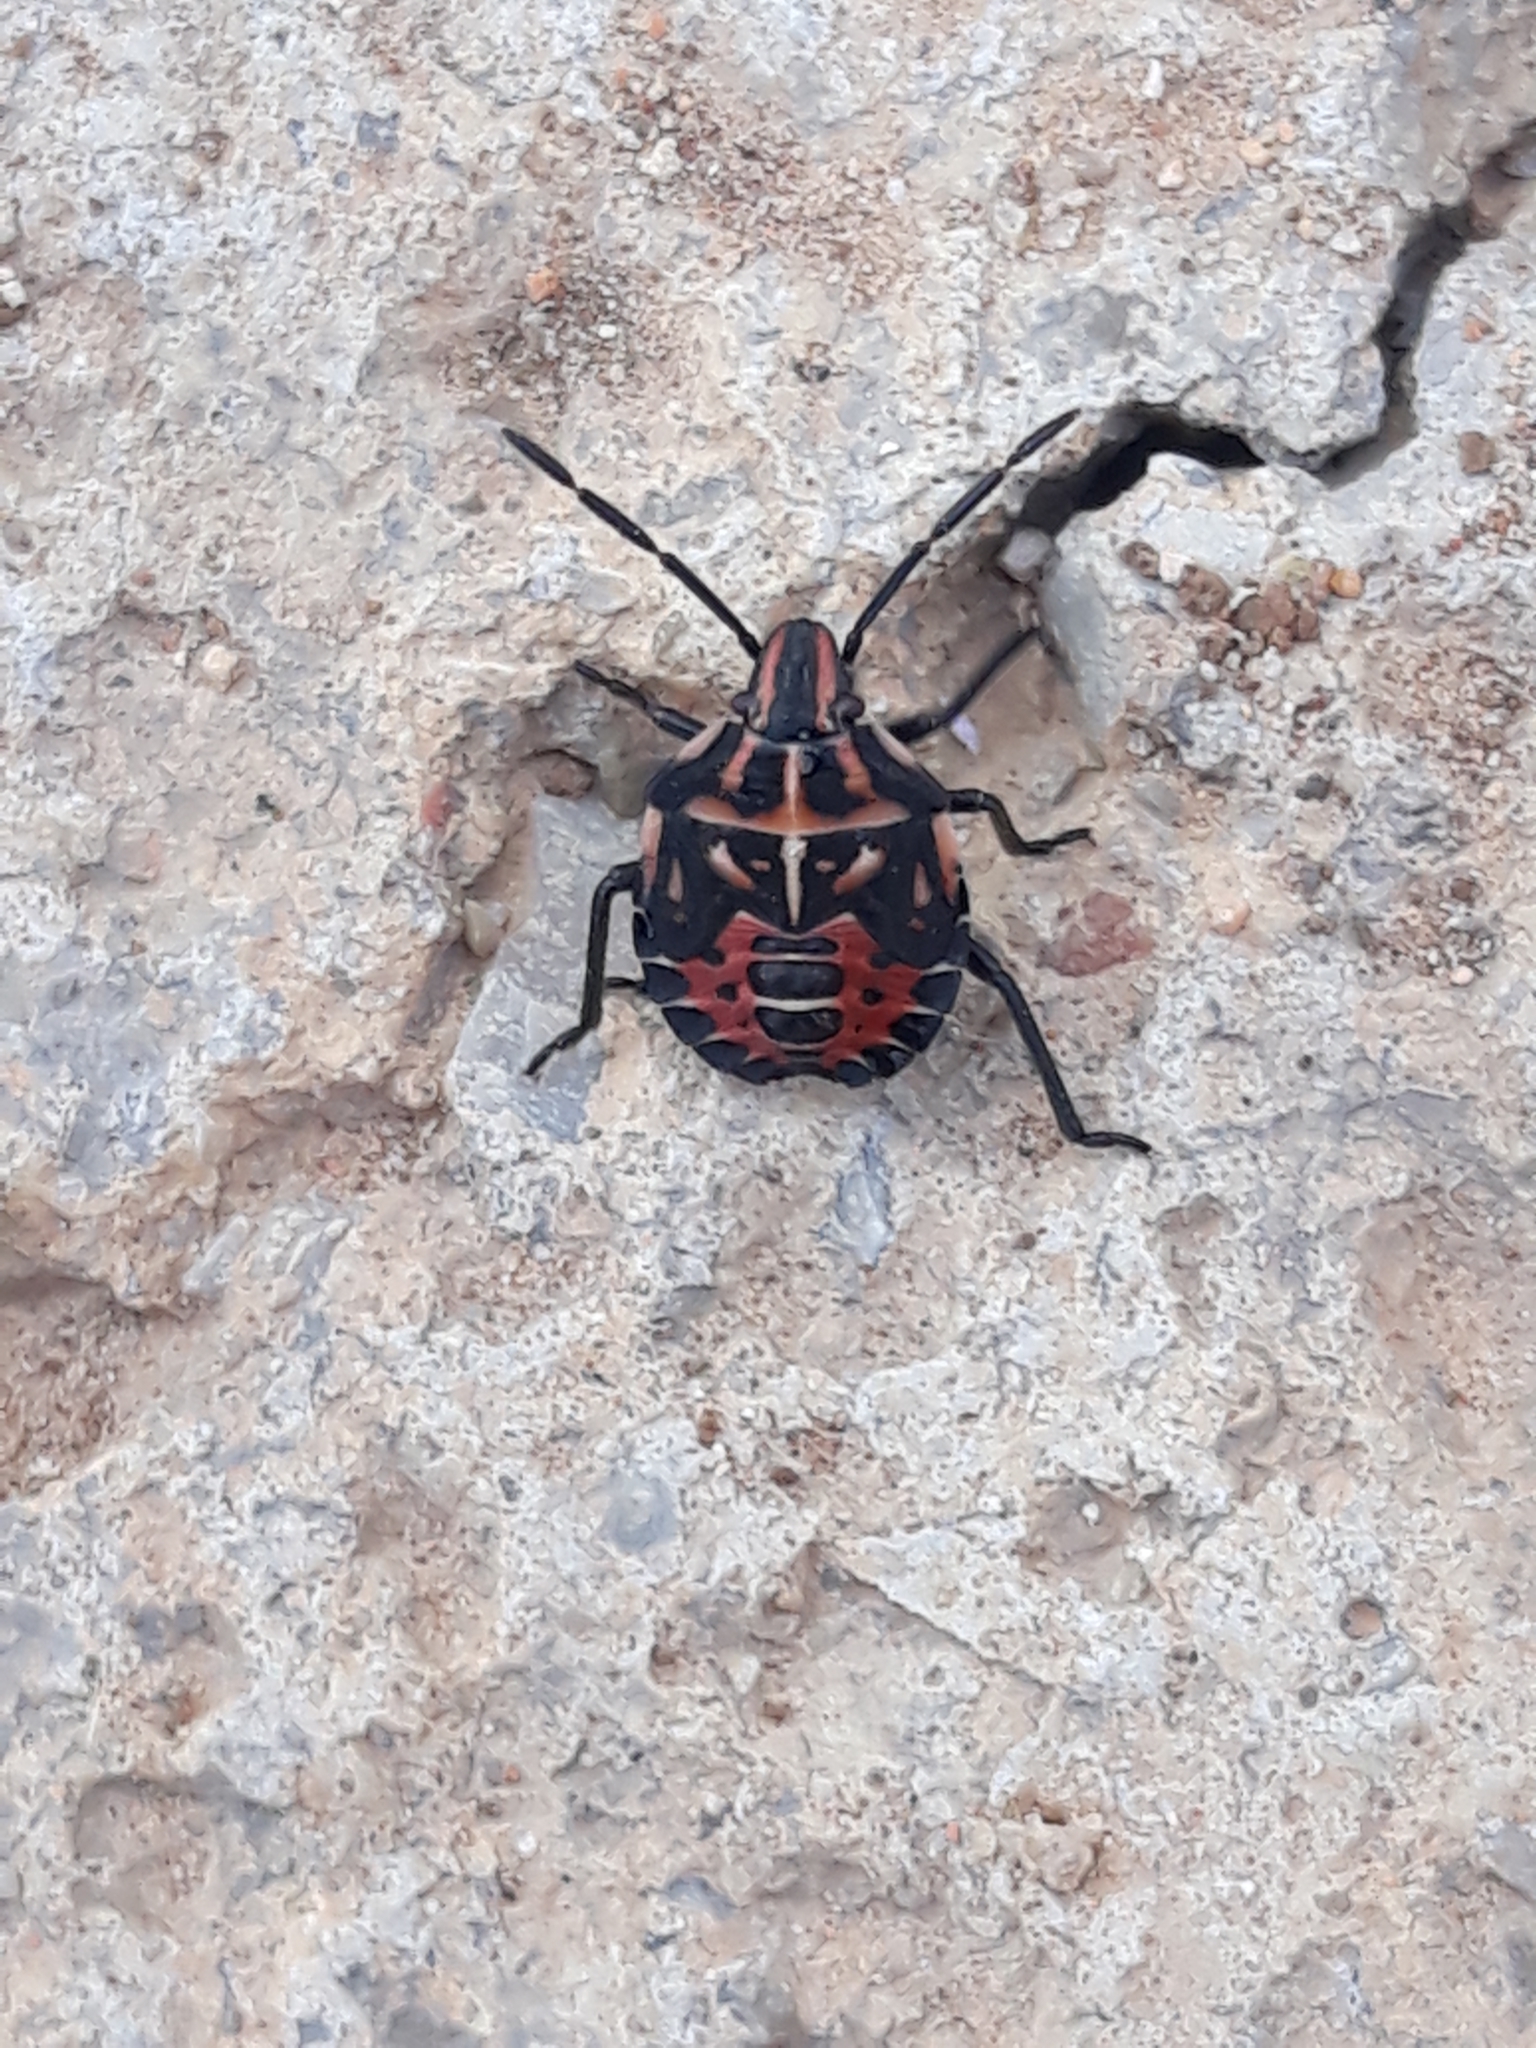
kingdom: Animalia
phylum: Arthropoda
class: Insecta
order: Hemiptera
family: Miridae
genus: Orthops
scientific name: Orthops kalmii
